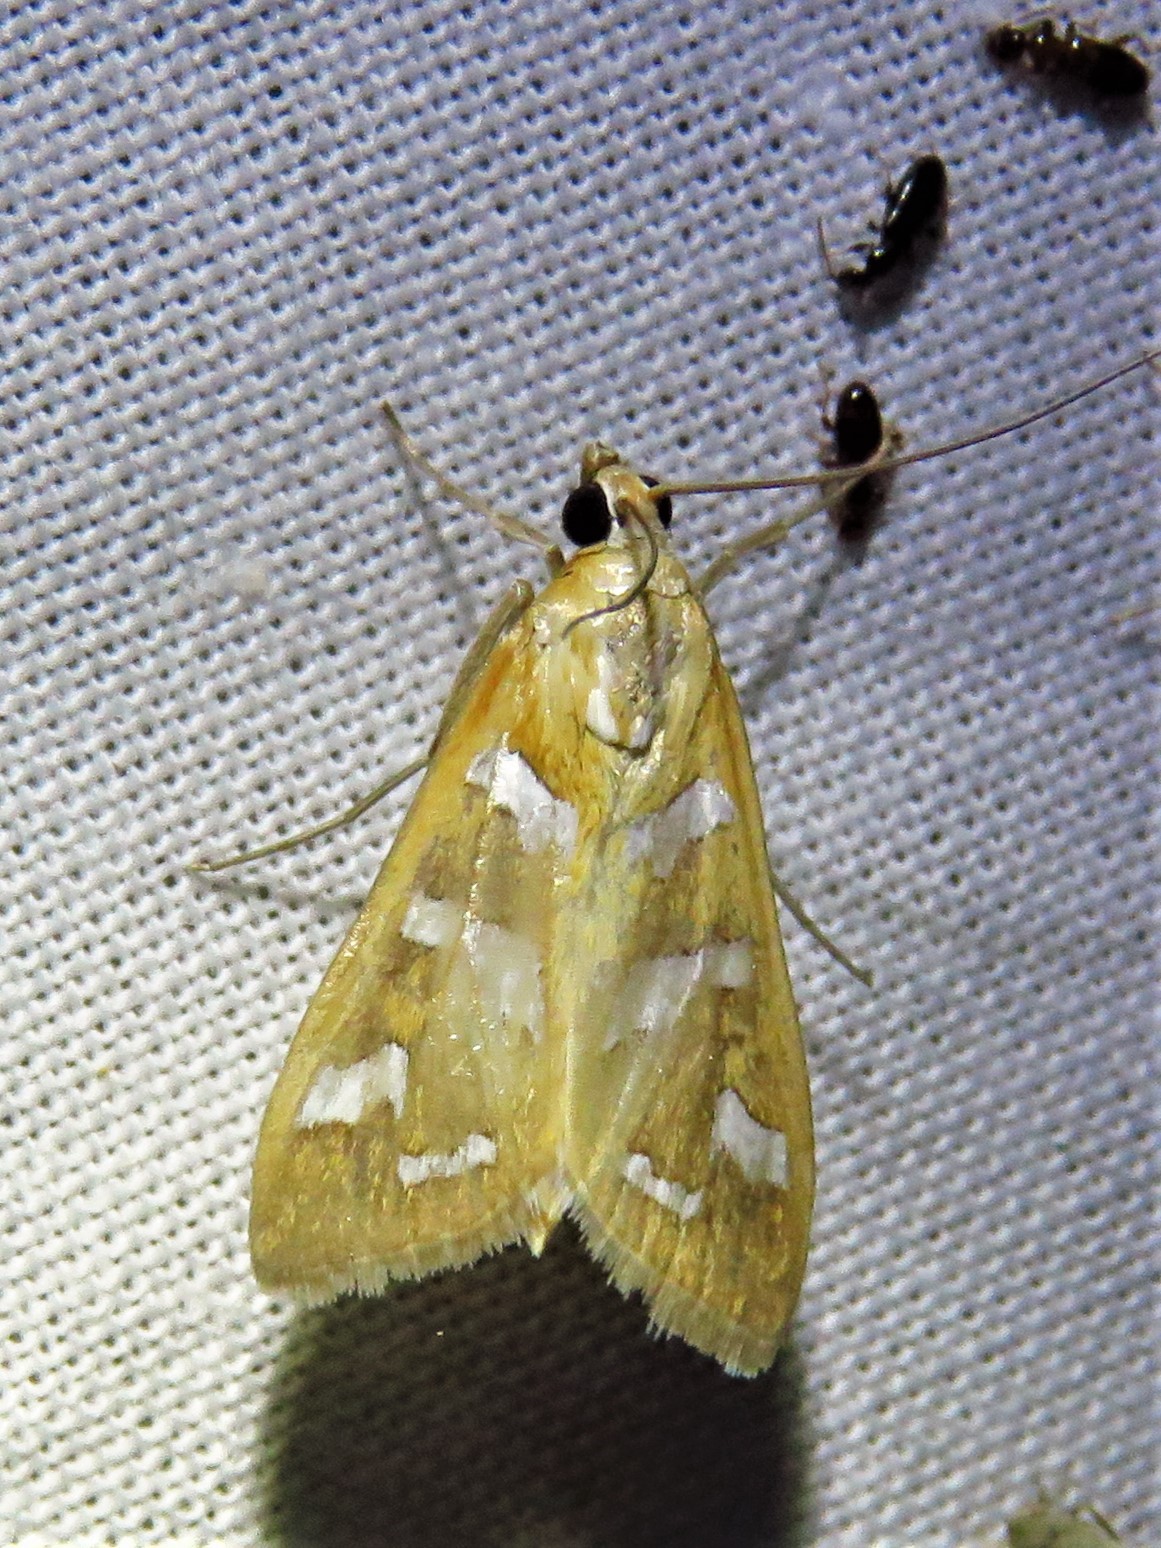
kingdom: Animalia
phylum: Arthropoda
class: Insecta
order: Lepidoptera
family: Crambidae
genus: Diastictis
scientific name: Diastictis fracturalis
